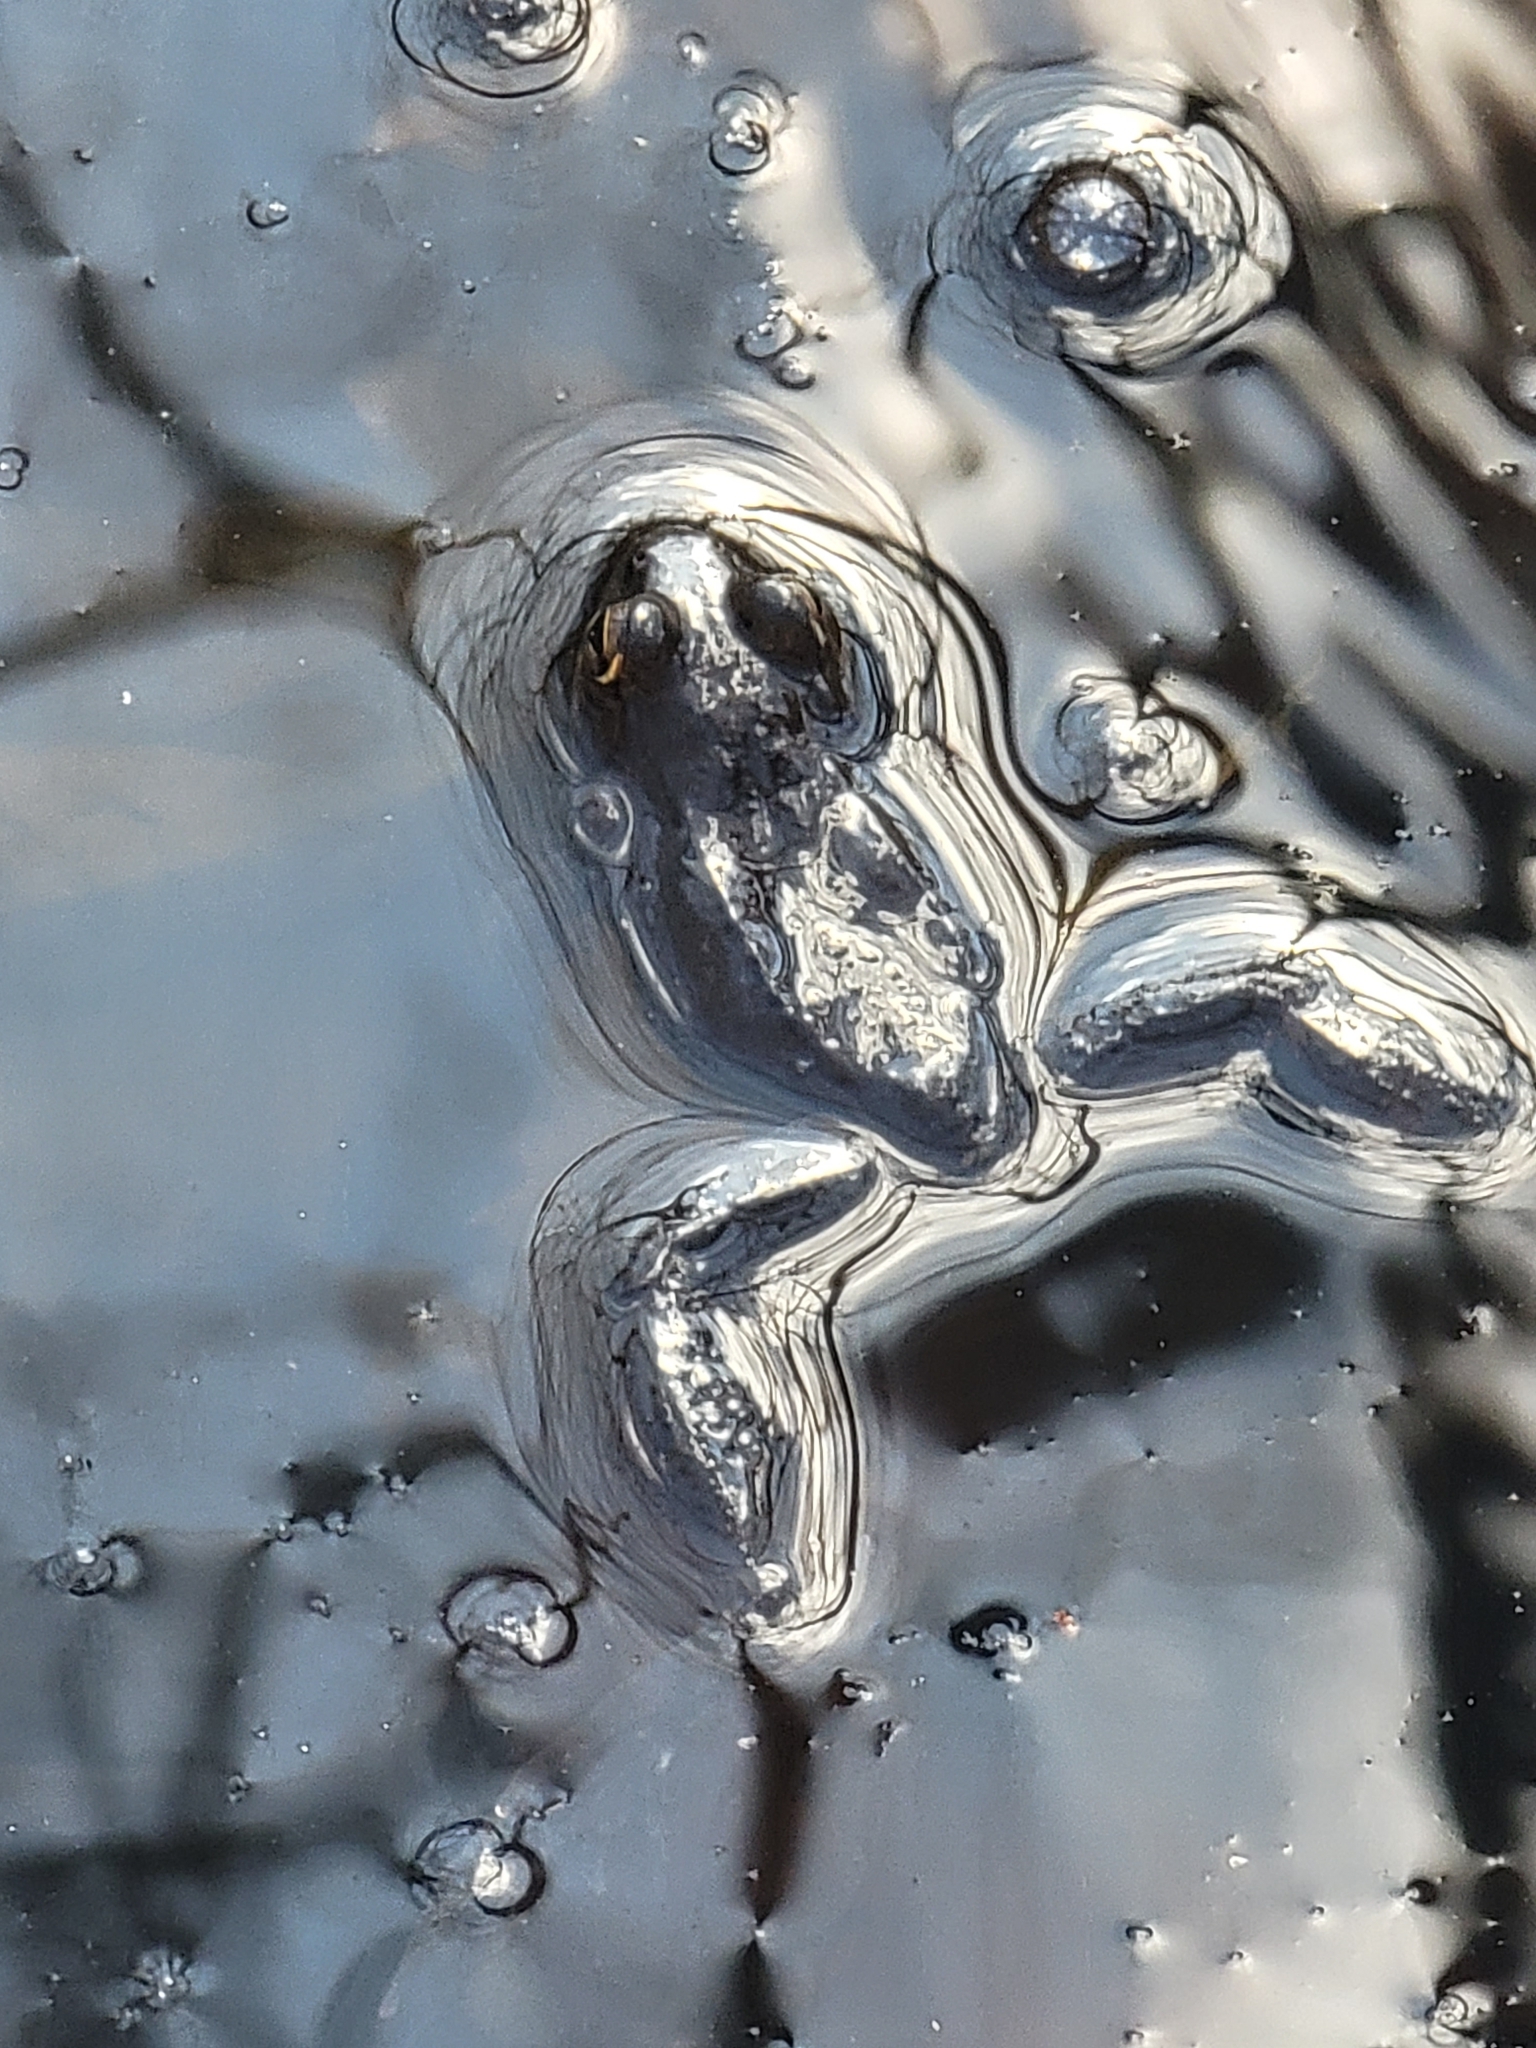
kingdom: Animalia
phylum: Chordata
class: Amphibia
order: Anura
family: Ranidae
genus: Lithobates
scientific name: Lithobates sylvaticus
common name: Wood frog
